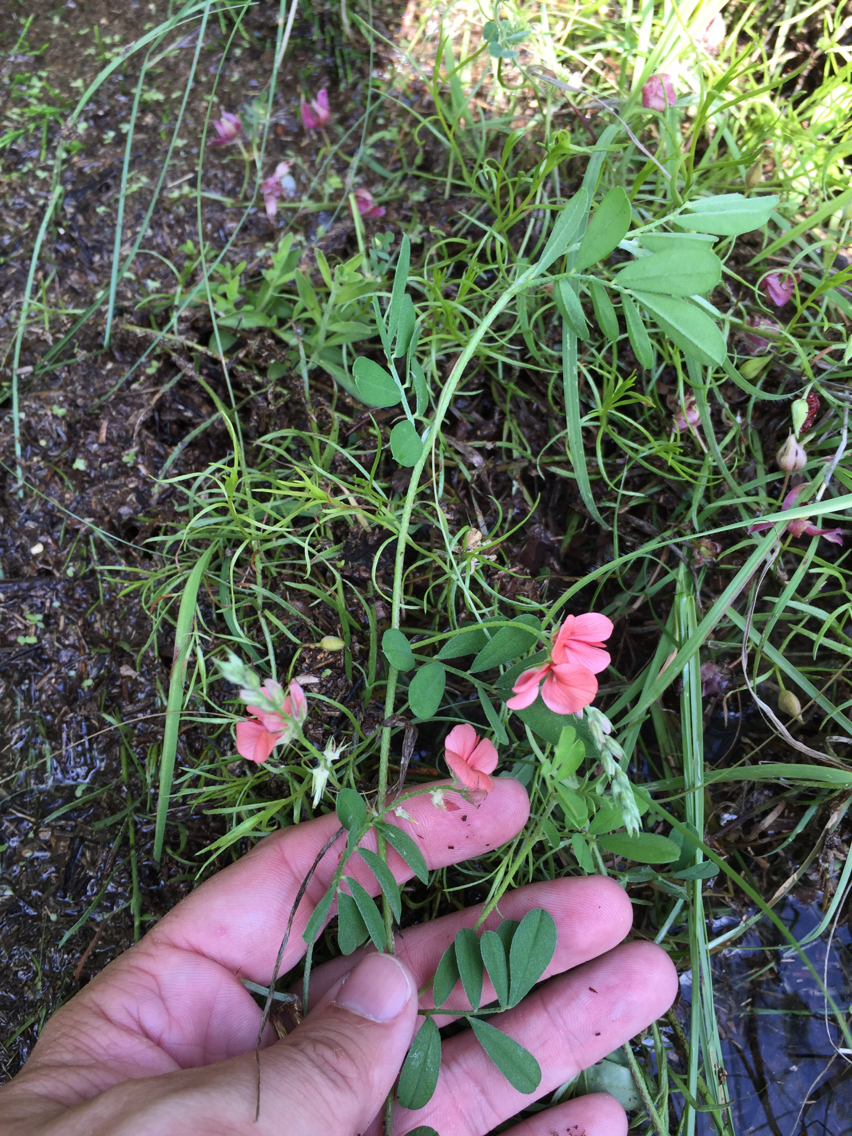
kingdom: Plantae
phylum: Tracheophyta
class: Magnoliopsida
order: Fabales
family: Fabaceae
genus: Indigofera
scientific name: Indigofera miniata
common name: Coast indigo
